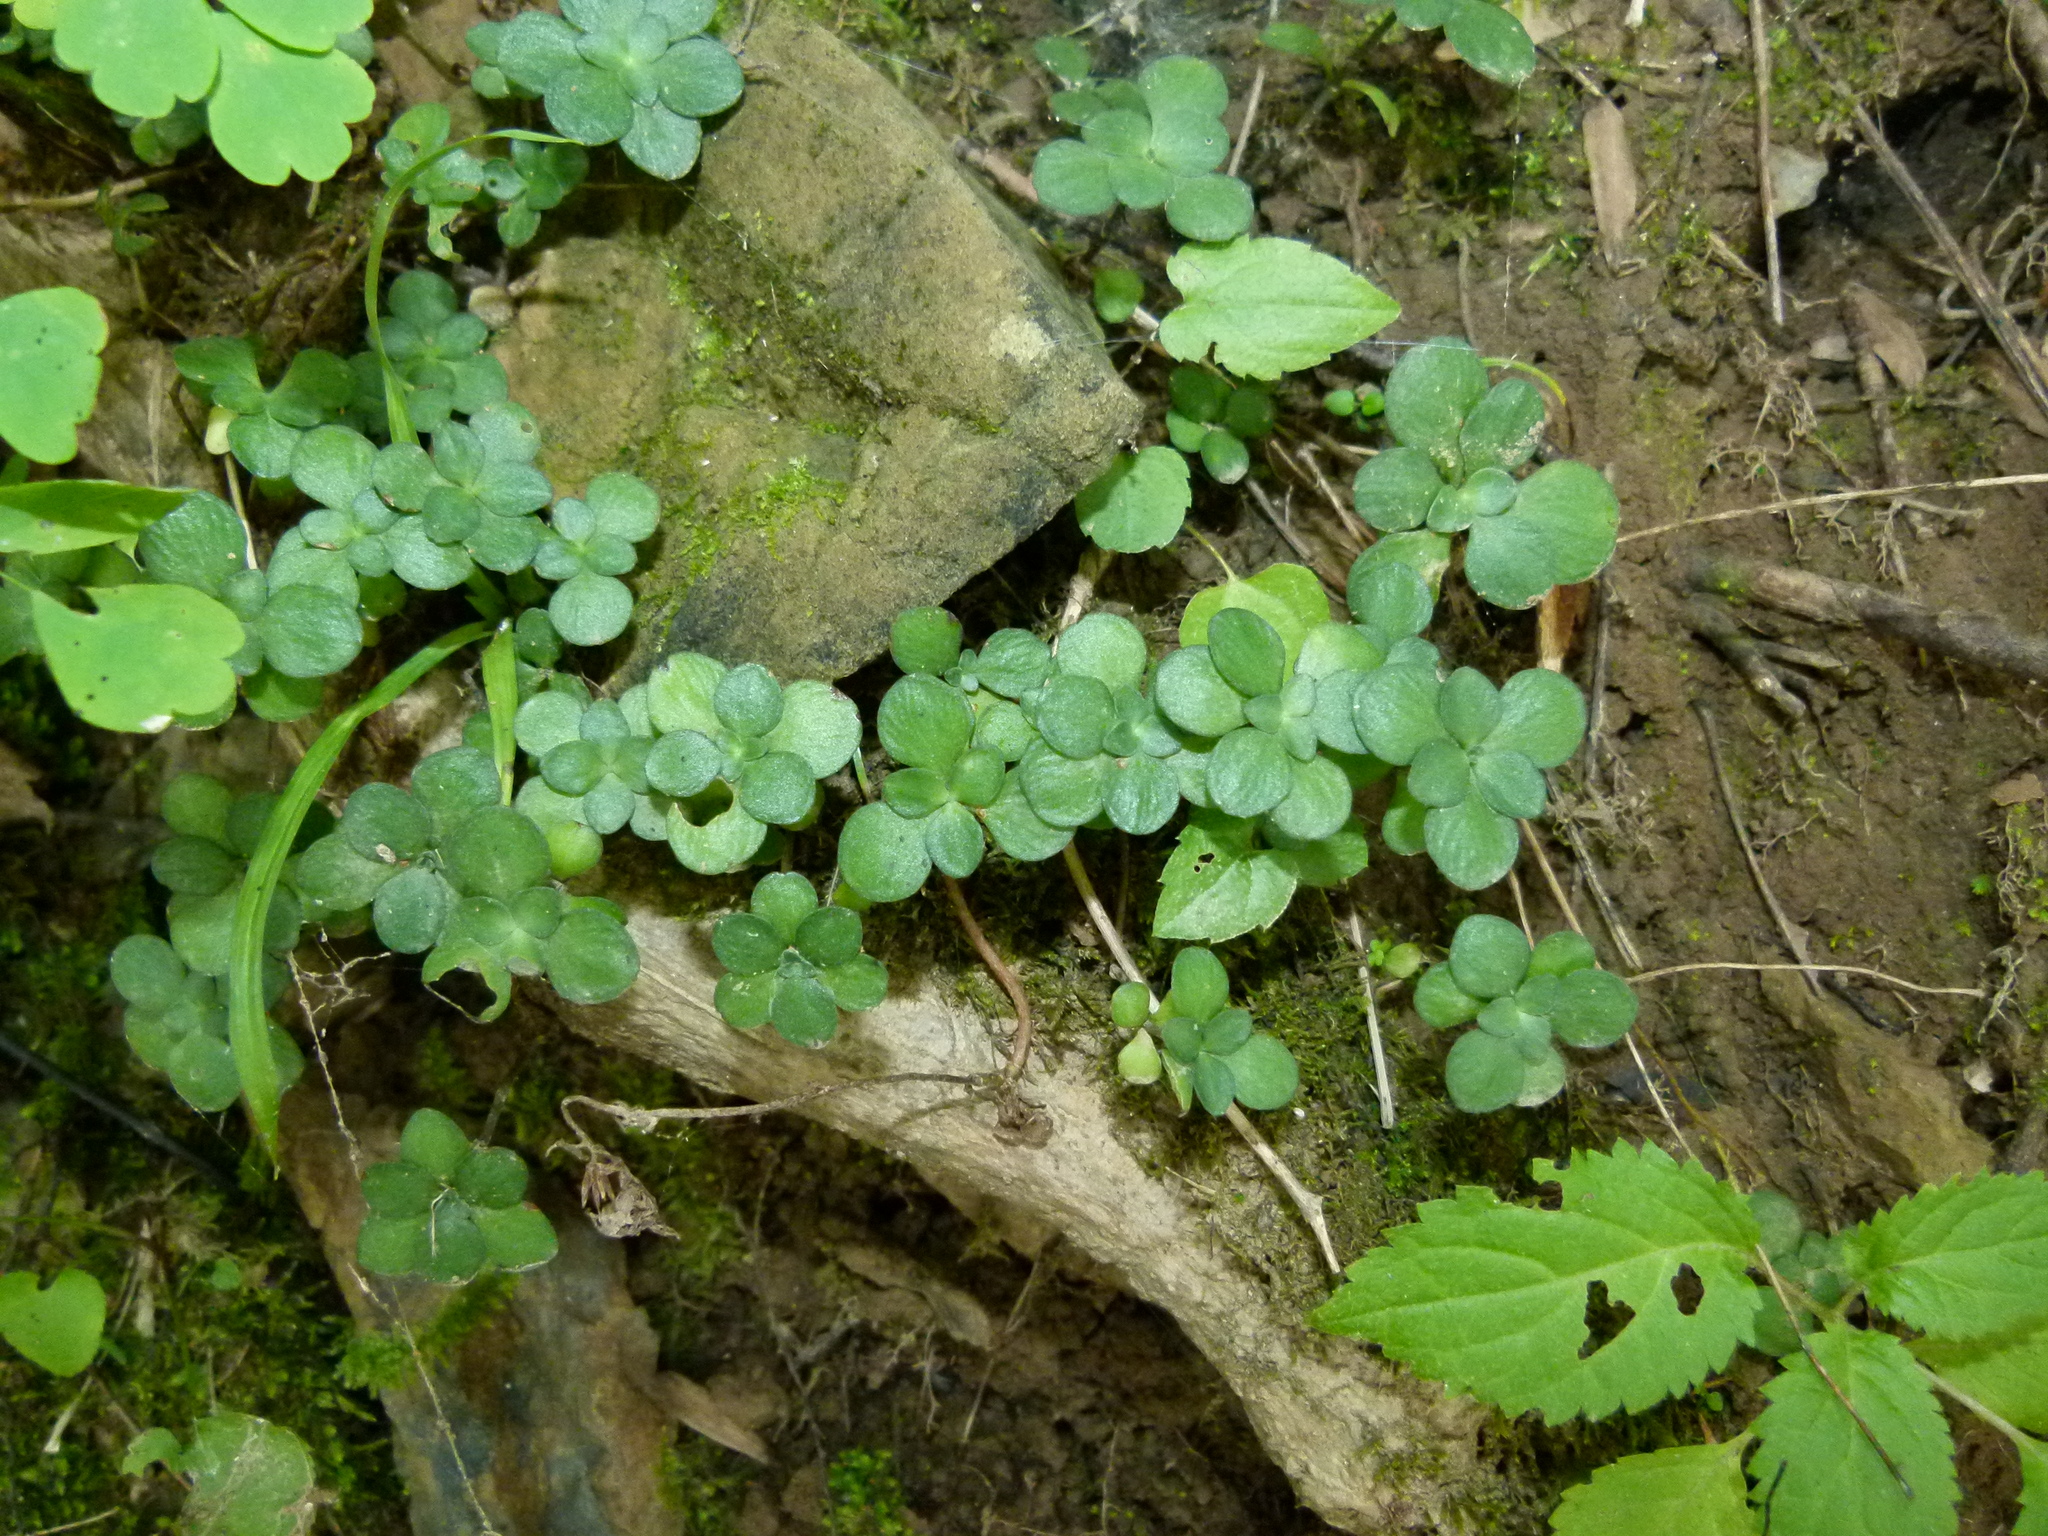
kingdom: Plantae
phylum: Tracheophyta
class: Magnoliopsida
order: Saxifragales
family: Crassulaceae
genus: Sedum
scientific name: Sedum ternatum
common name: Wild stonecrop
